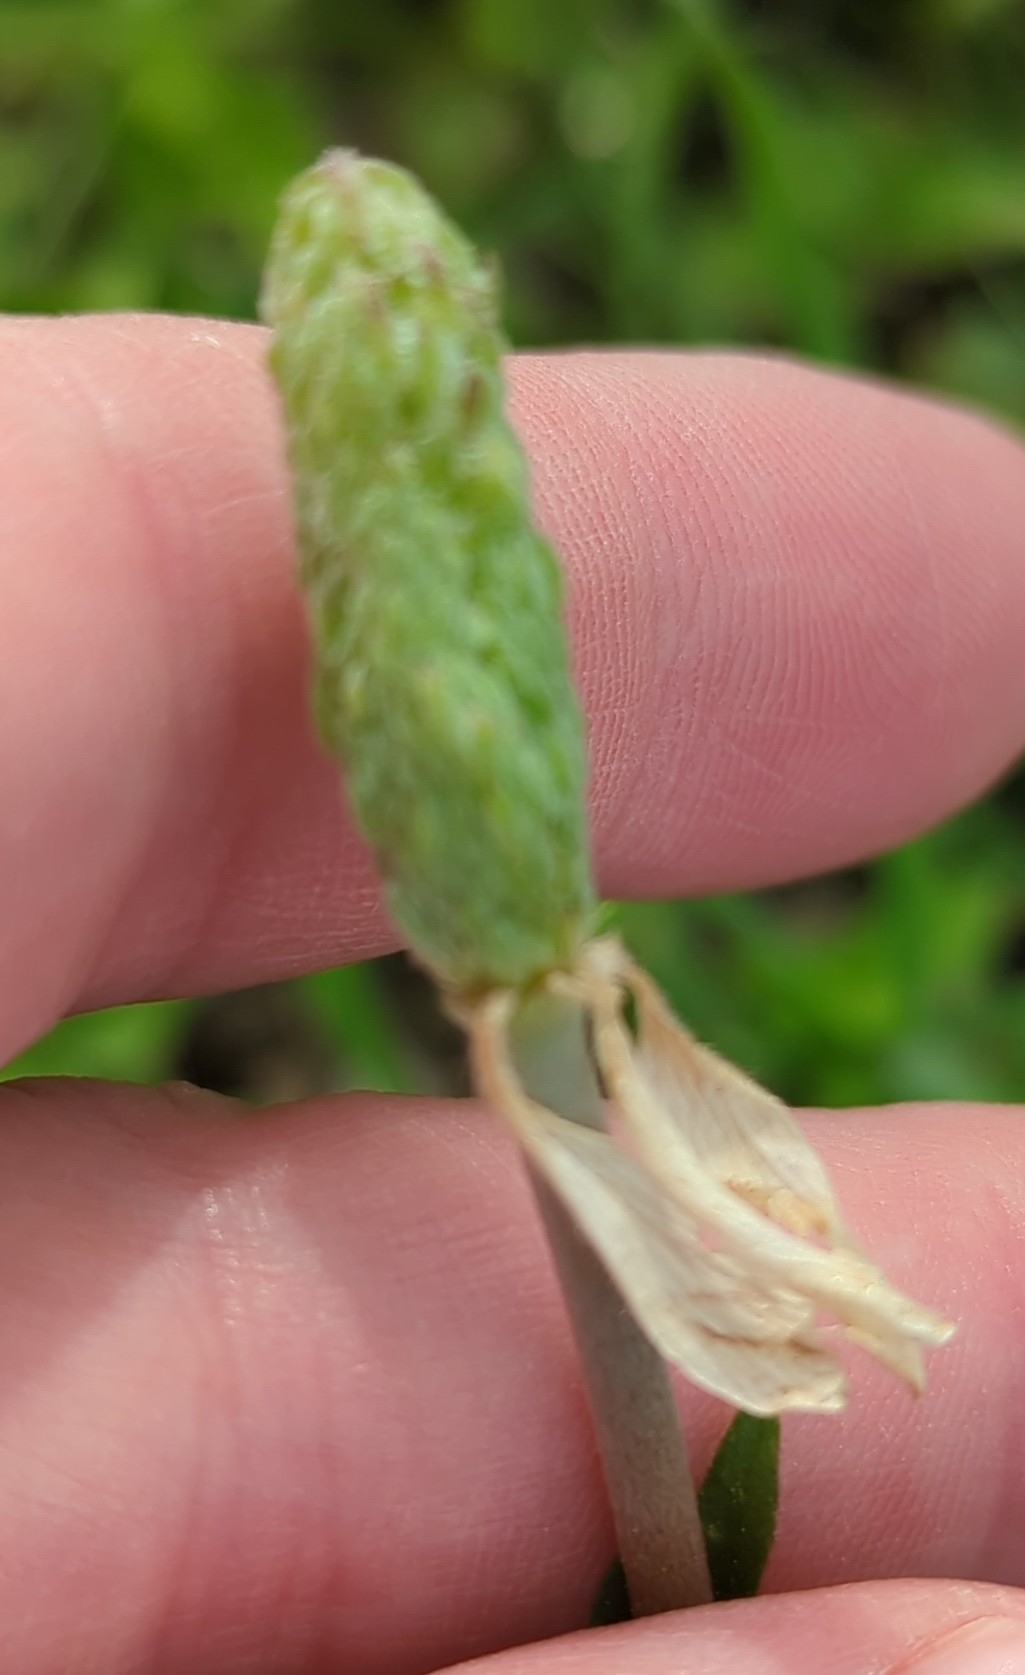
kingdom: Plantae
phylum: Tracheophyta
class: Magnoliopsida
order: Ranunculales
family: Ranunculaceae
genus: Anemone
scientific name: Anemone berlandieri
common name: Ten-petal anemone
